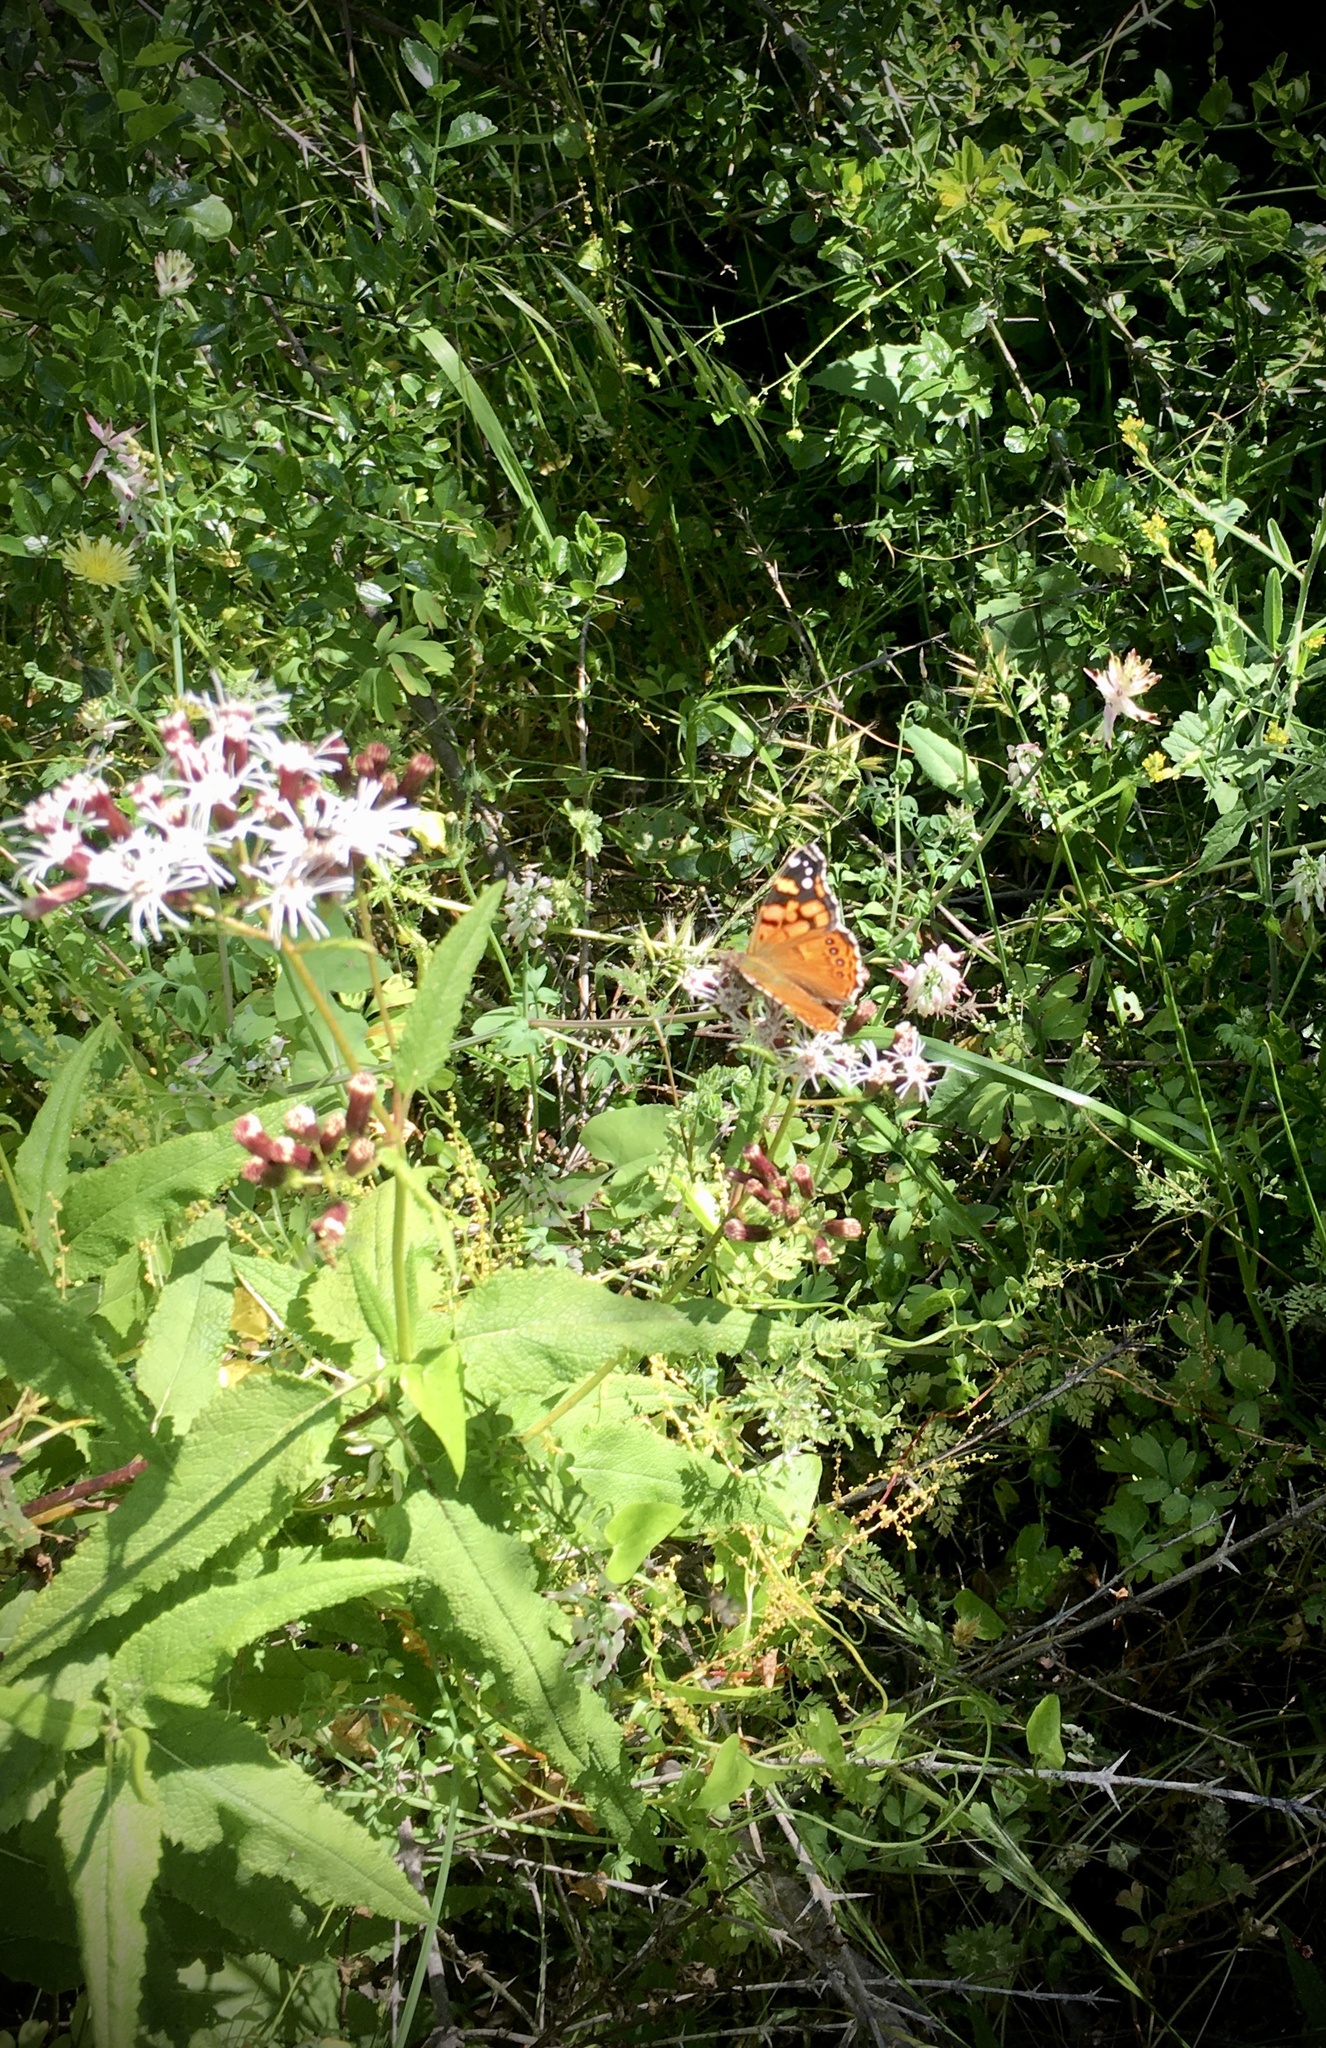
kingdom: Animalia
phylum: Arthropoda
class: Insecta
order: Lepidoptera
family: Nymphalidae
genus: Vanessa
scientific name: Vanessa carye
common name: Subtropical lady
